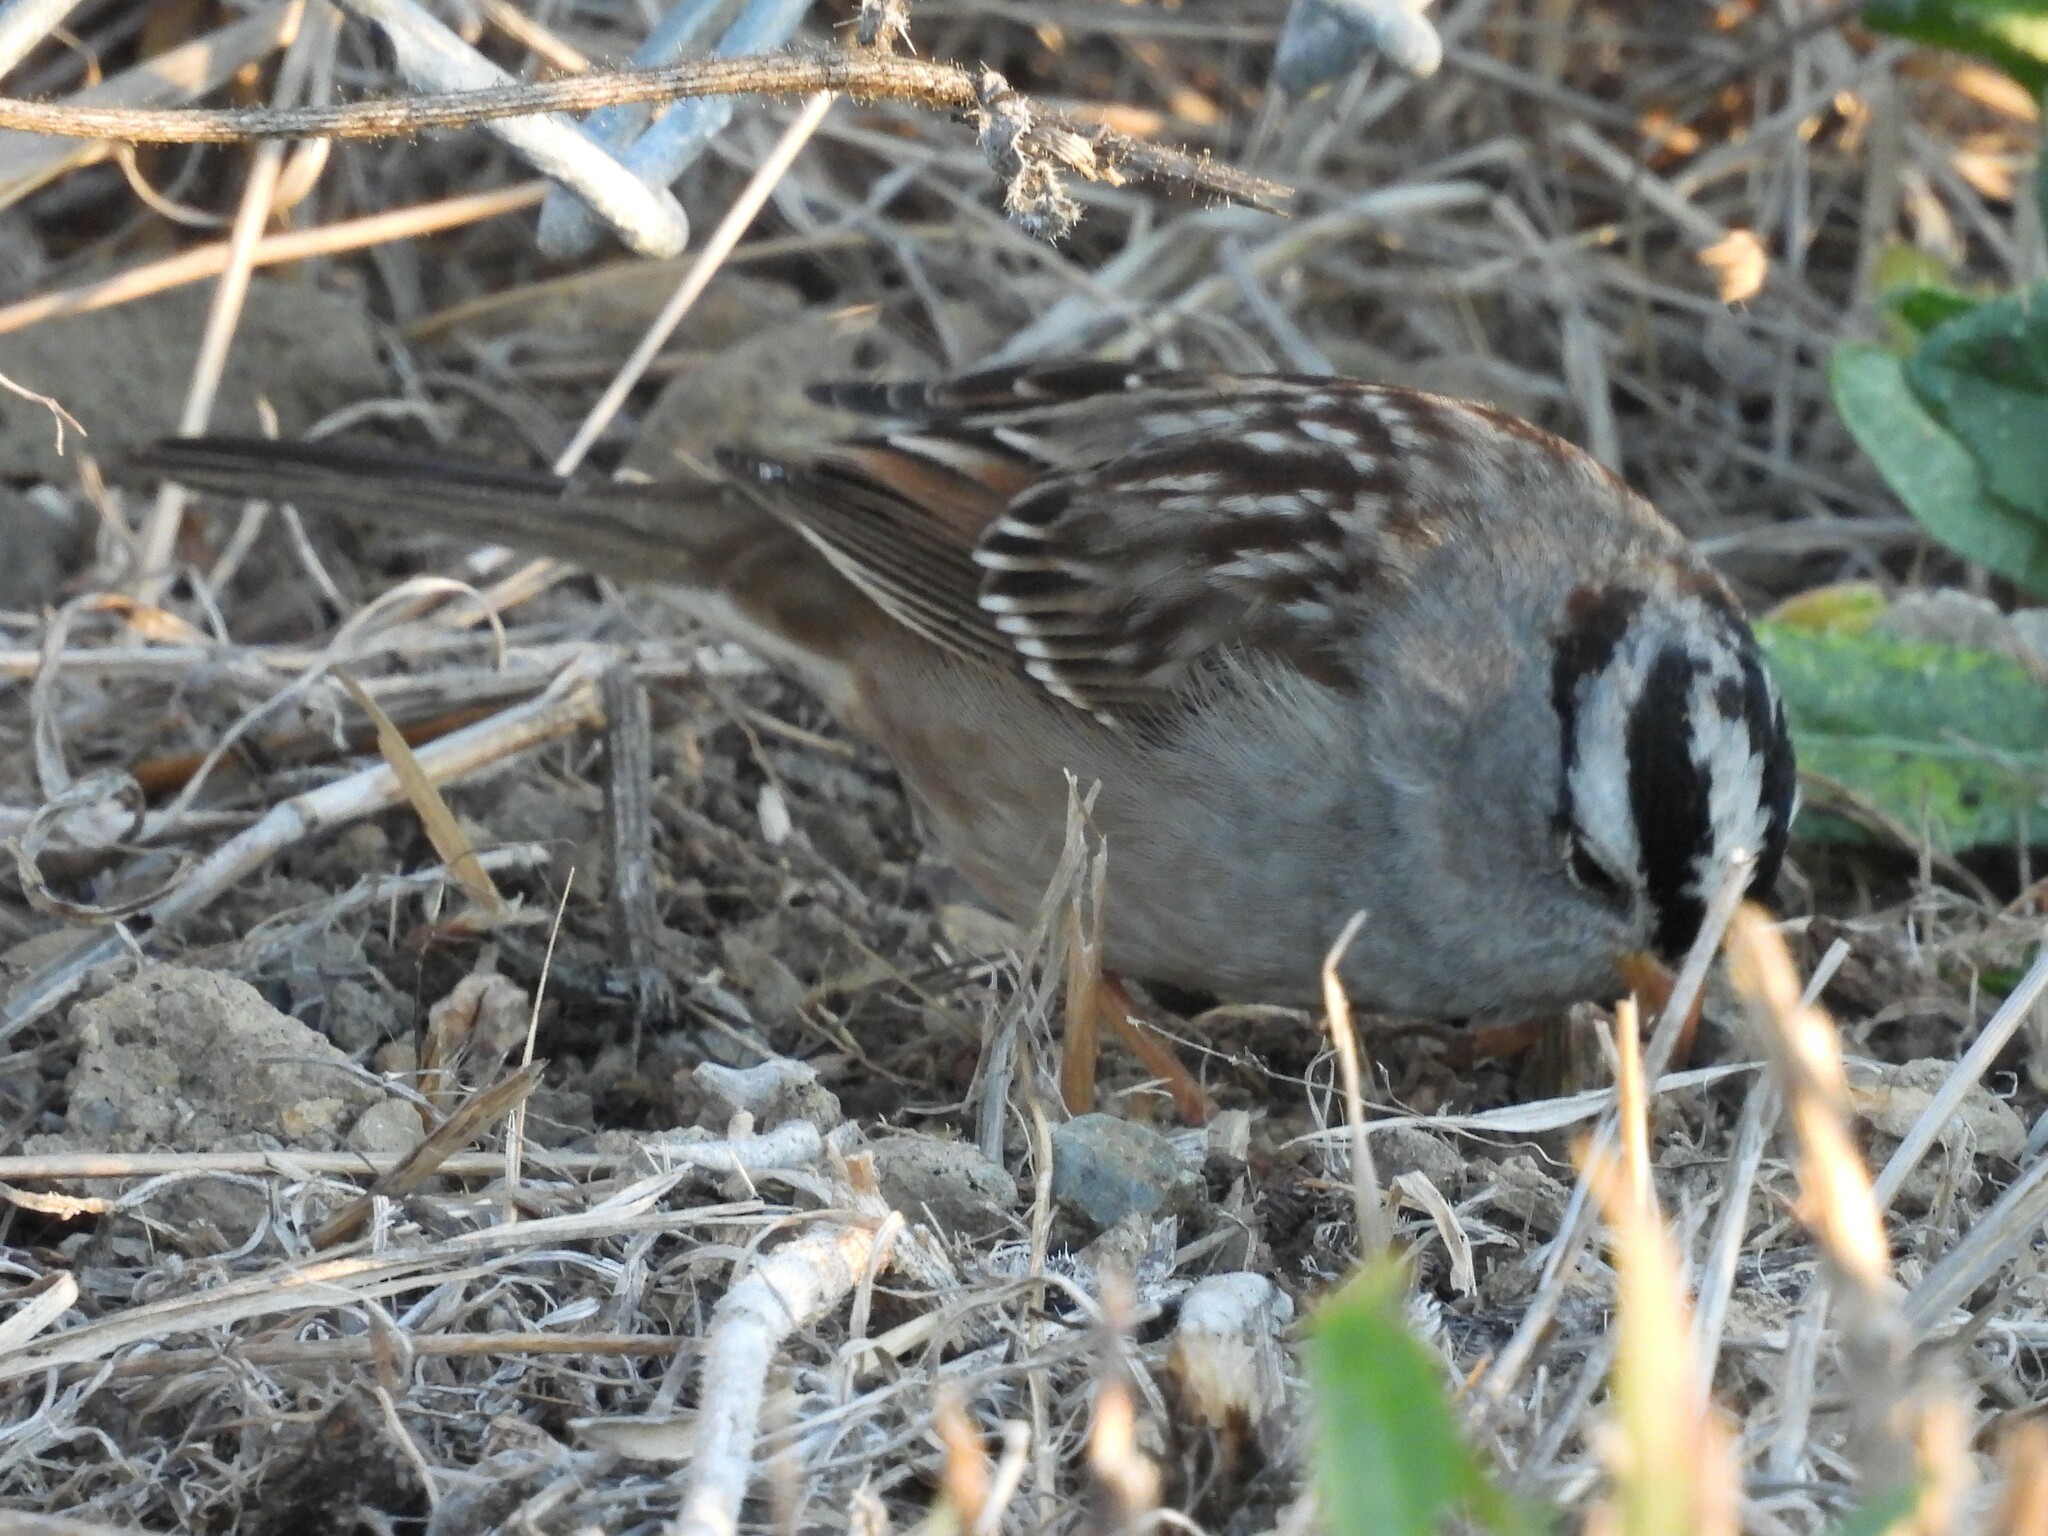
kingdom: Animalia
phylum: Chordata
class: Aves
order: Passeriformes
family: Passerellidae
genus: Zonotrichia
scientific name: Zonotrichia leucophrys
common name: White-crowned sparrow
